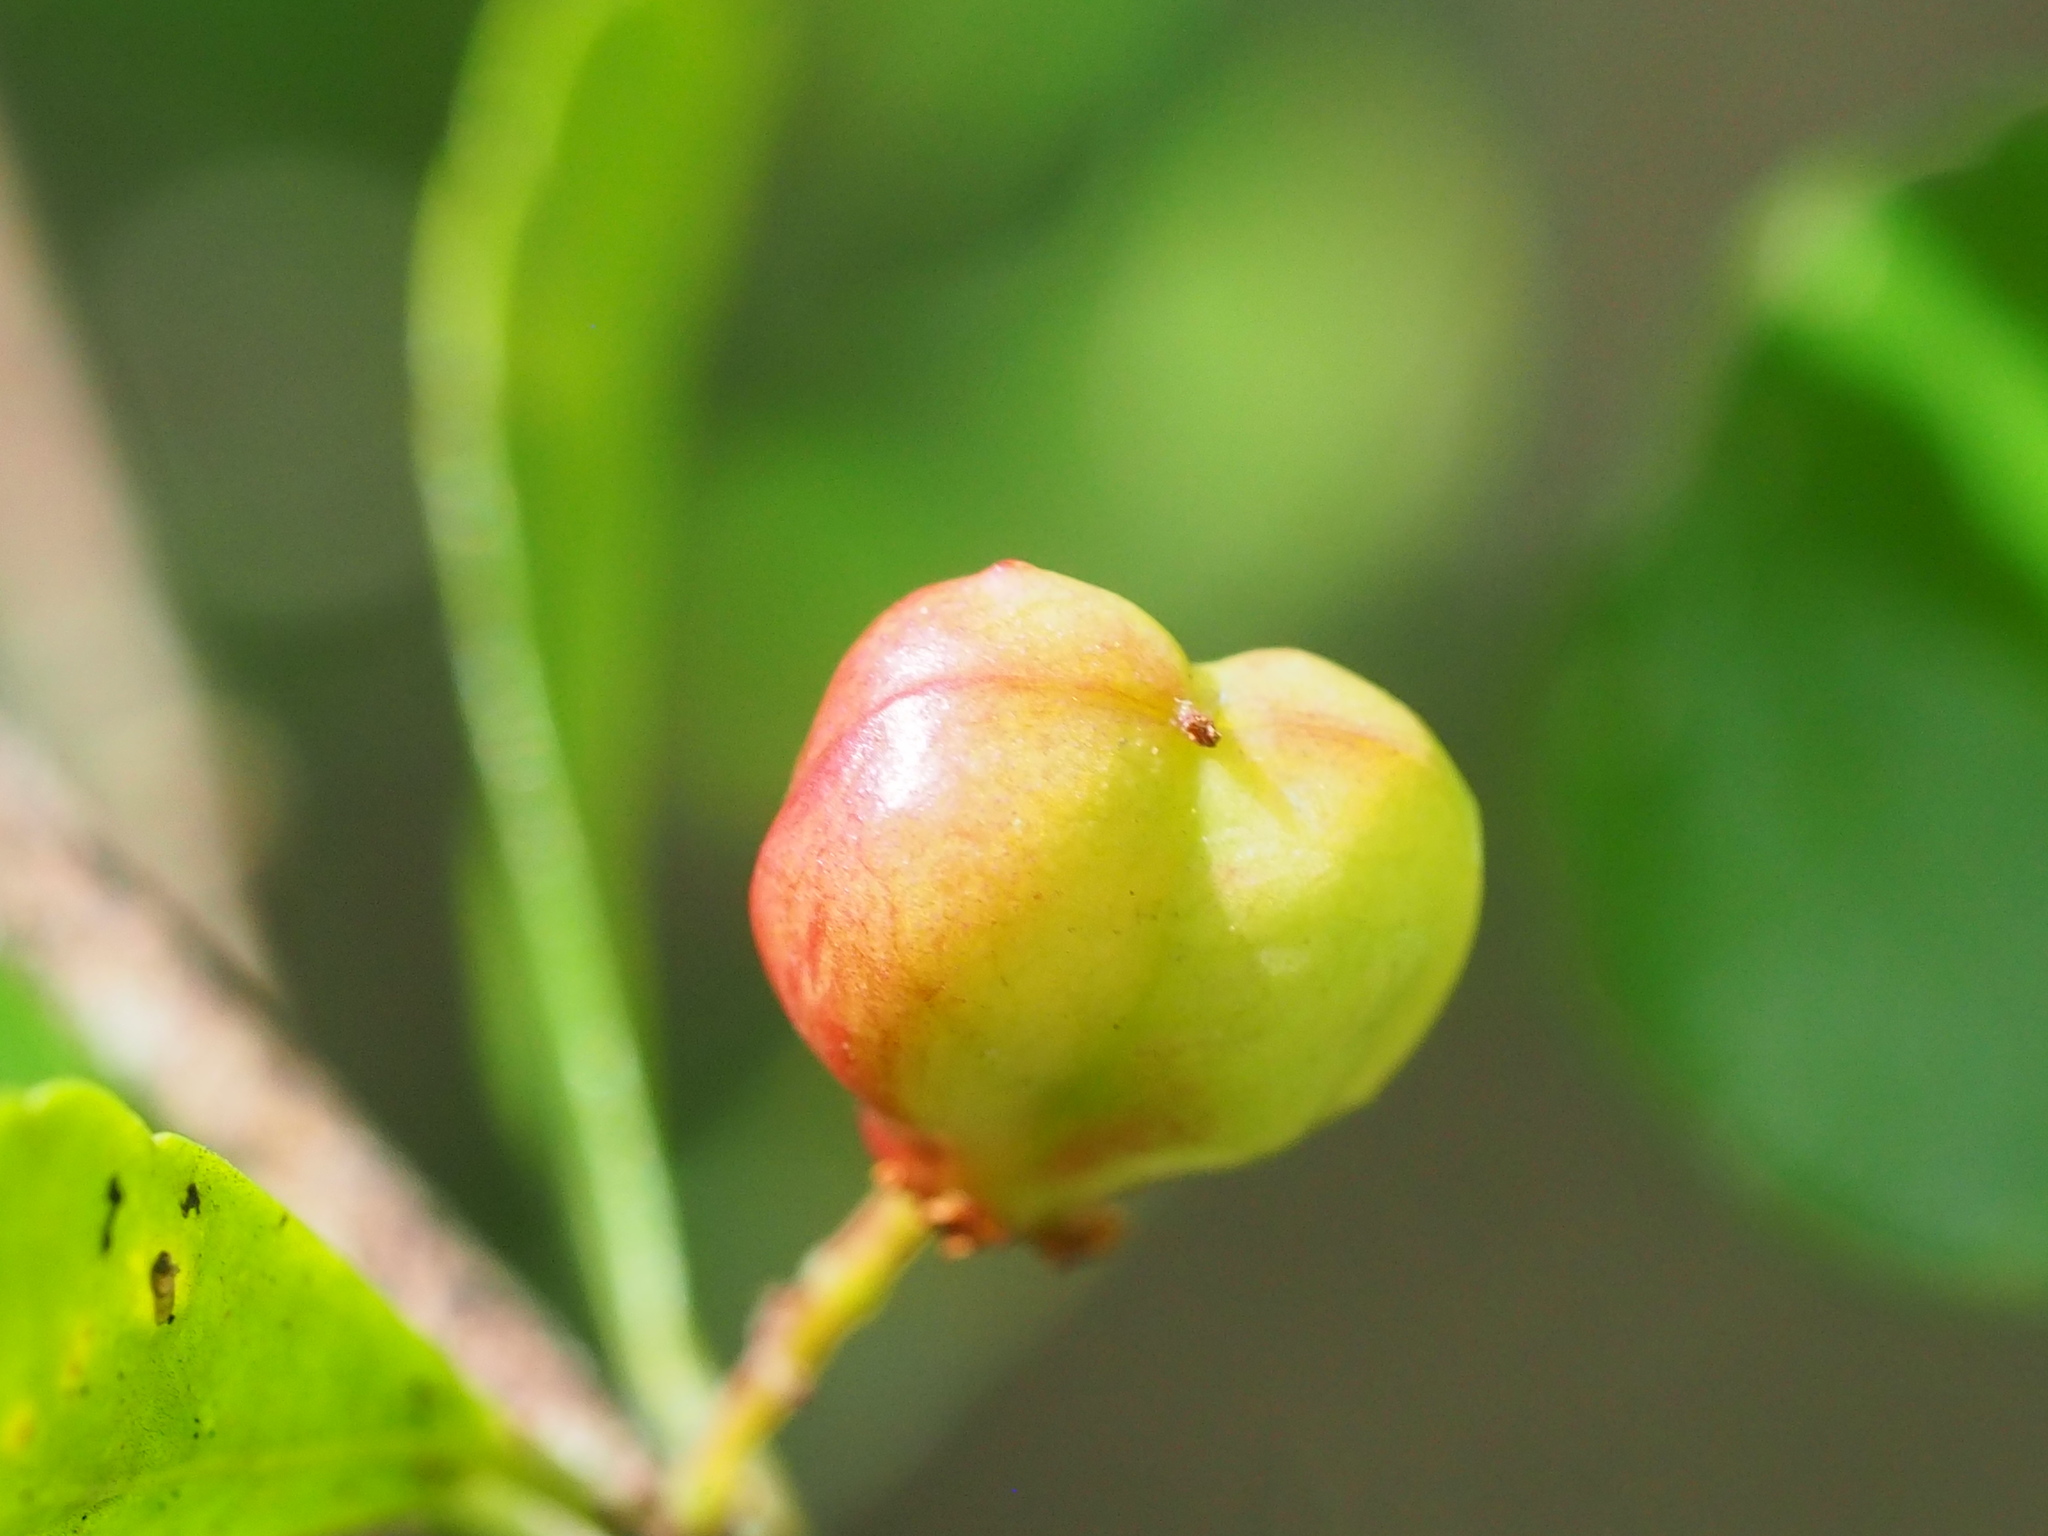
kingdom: Plantae
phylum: Tracheophyta
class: Magnoliopsida
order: Celastrales
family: Celastraceae
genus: Gymnosporia
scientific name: Gymnosporia diversifolia
